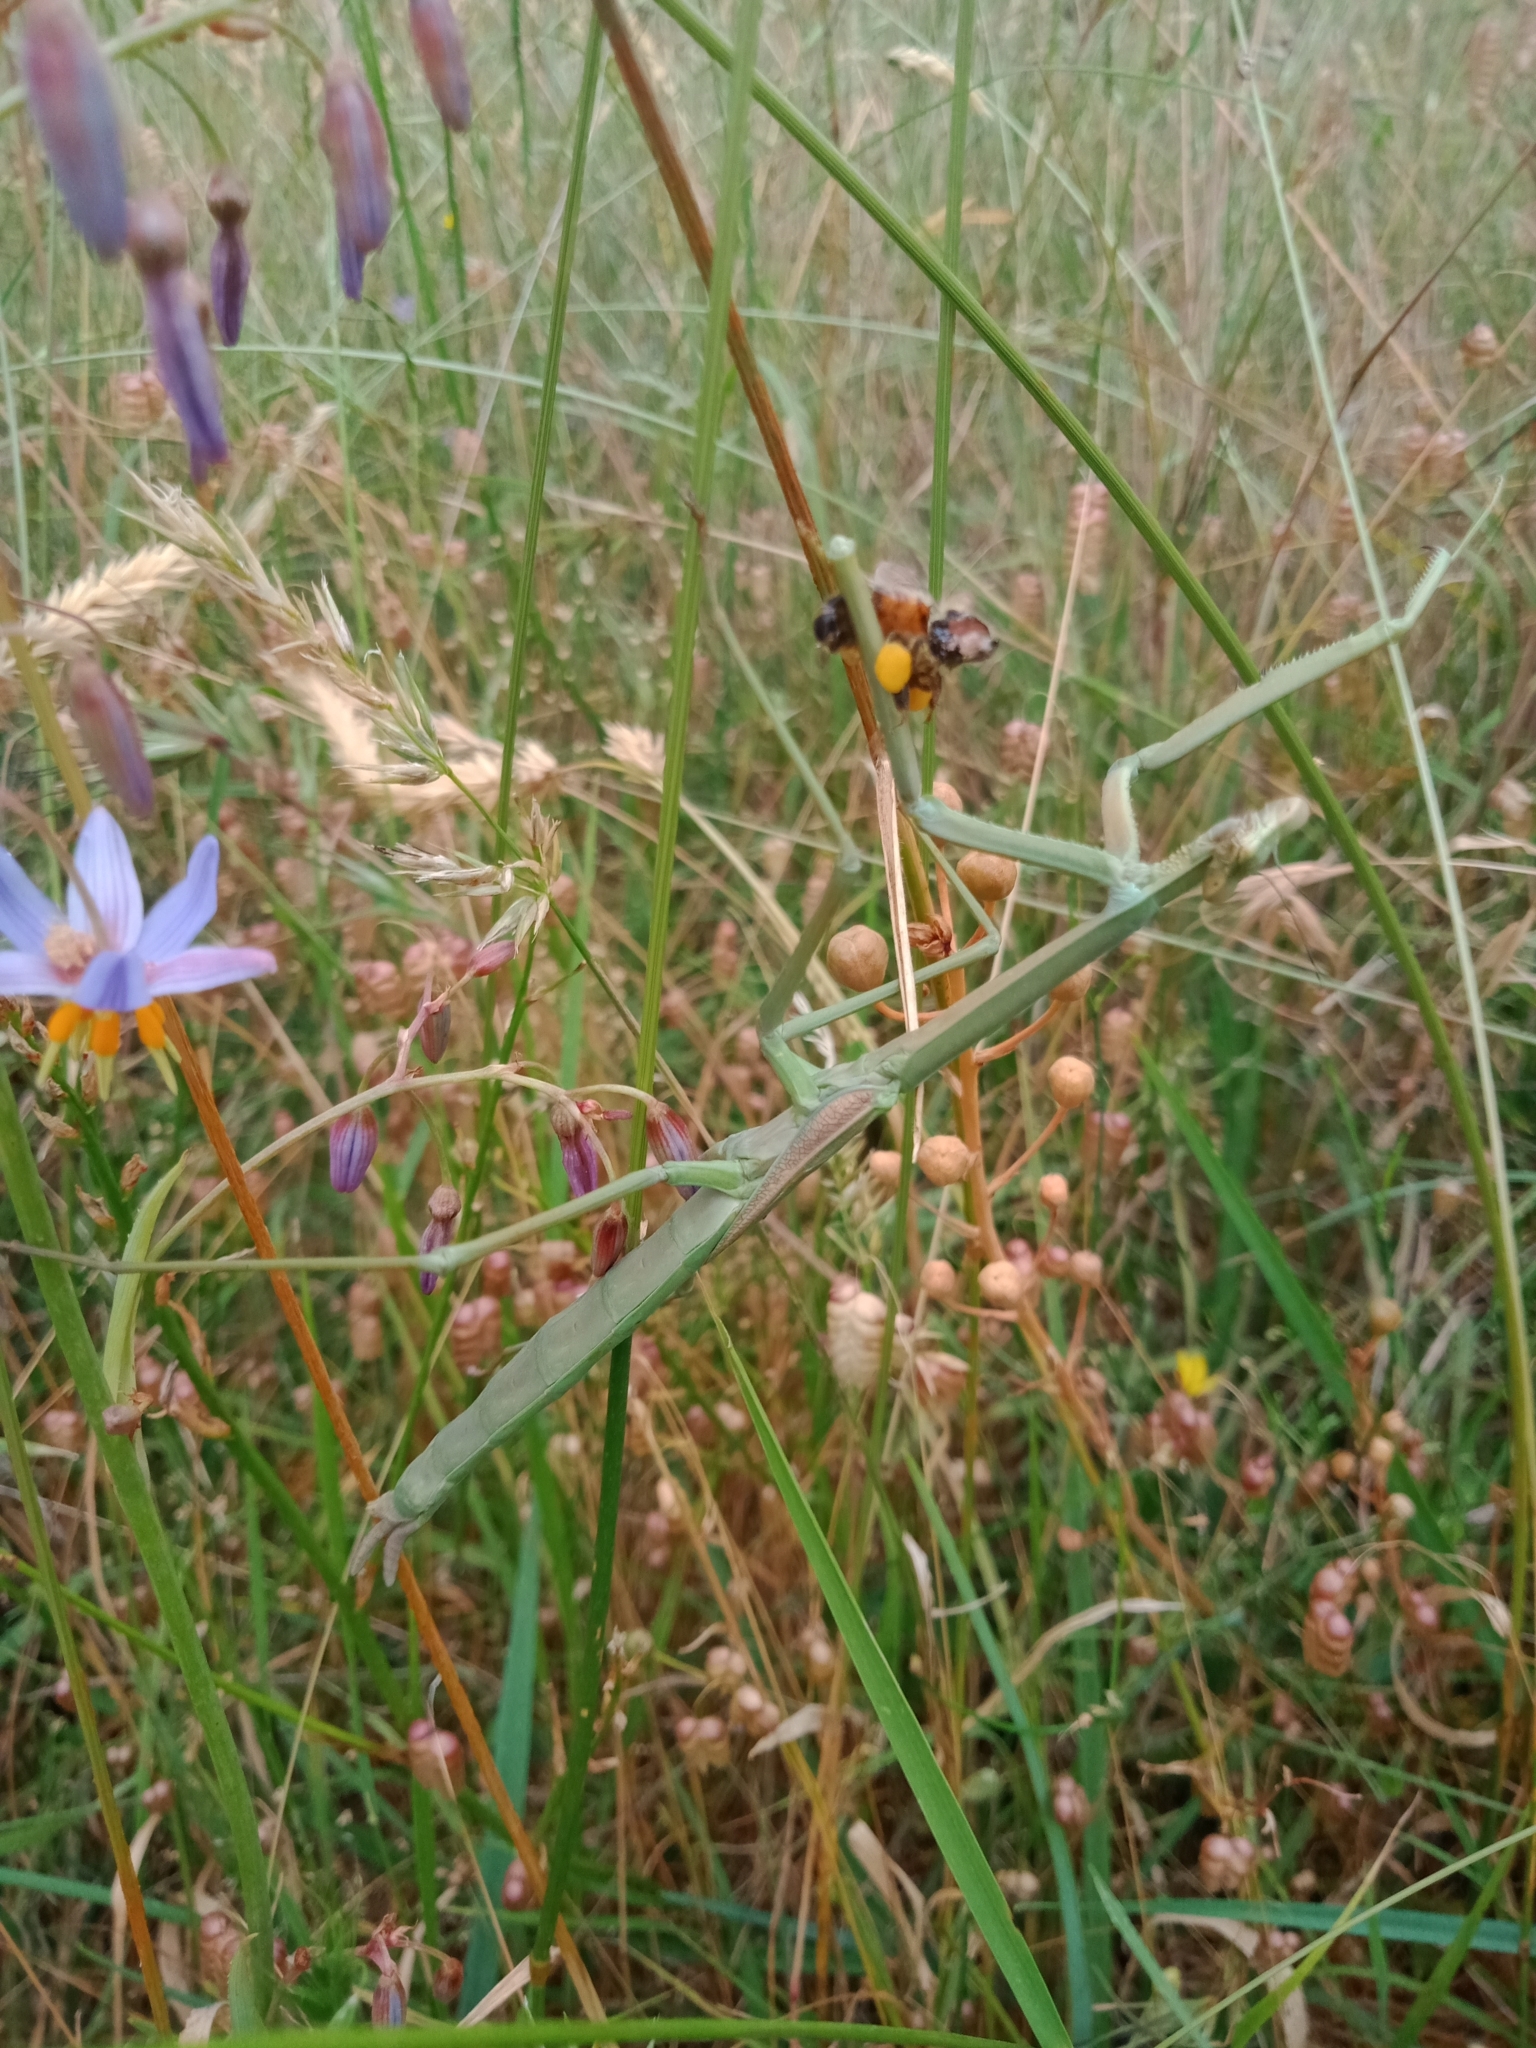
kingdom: Animalia
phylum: Arthropoda
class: Insecta
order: Mantodea
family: Mantidae
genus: Archimantis
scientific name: Archimantis sobrina
